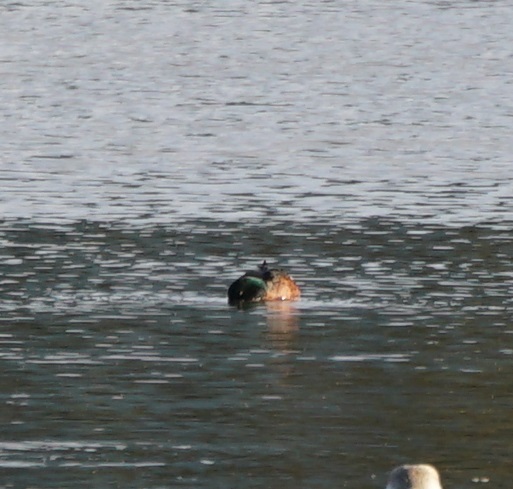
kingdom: Animalia
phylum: Chordata
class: Aves
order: Anseriformes
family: Anatidae
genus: Anas
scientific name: Anas castanea
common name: Chestnut teal
